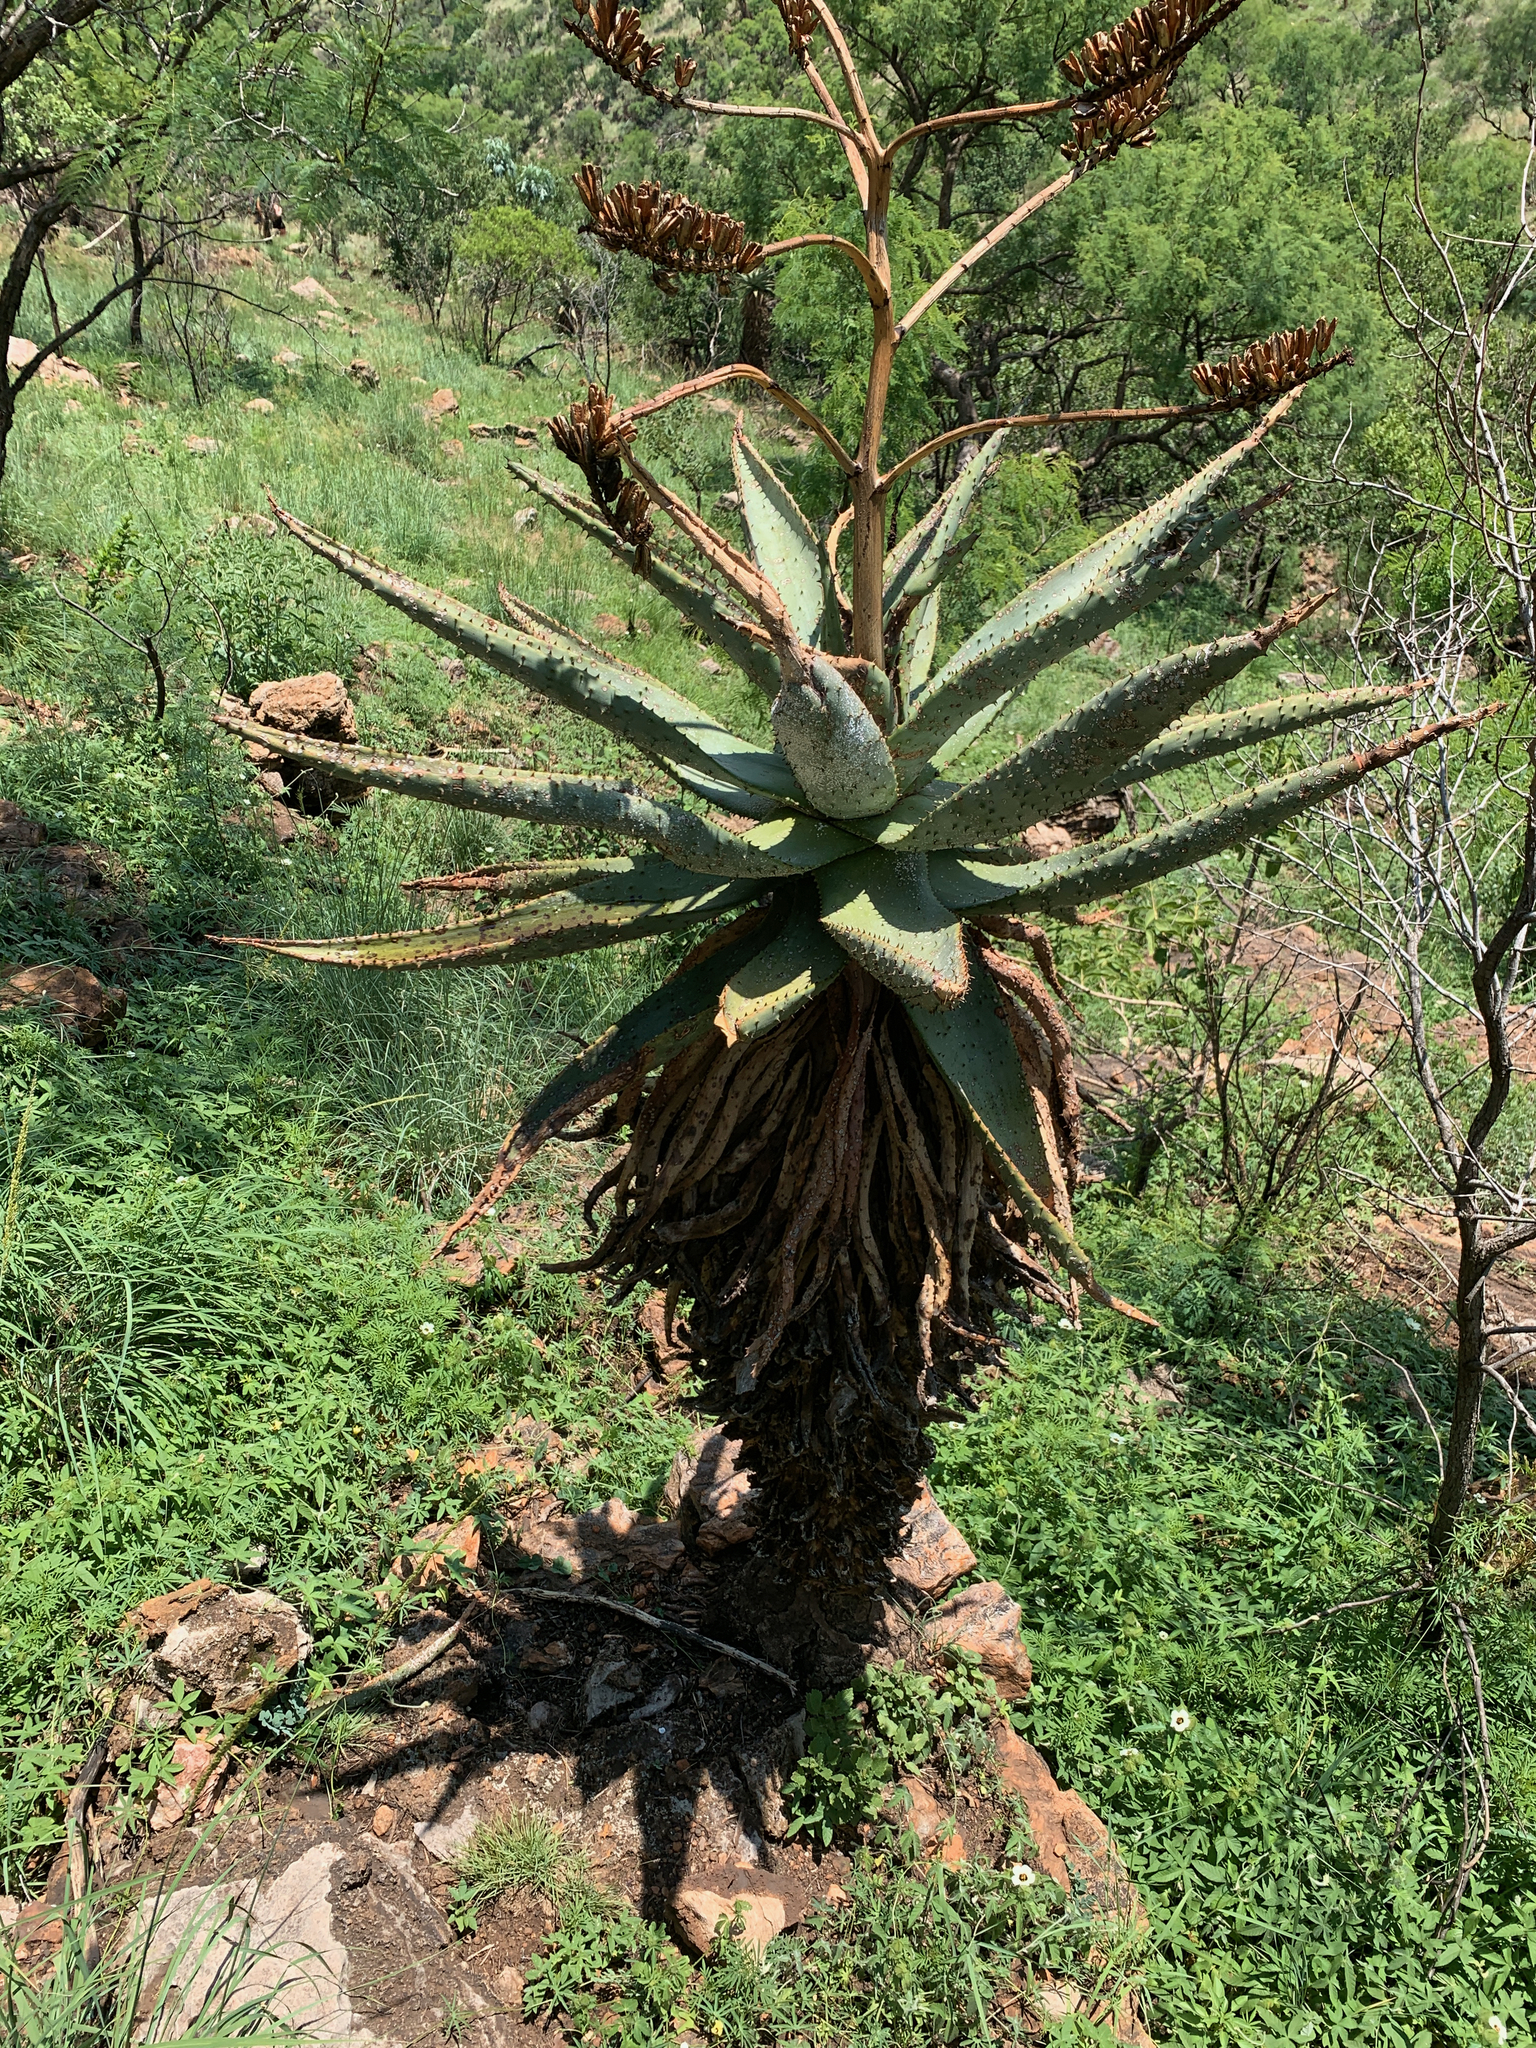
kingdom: Plantae
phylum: Tracheophyta
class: Liliopsida
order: Asparagales
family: Asphodelaceae
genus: Aloe
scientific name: Aloe marlothii
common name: Flat-flowered aloe
